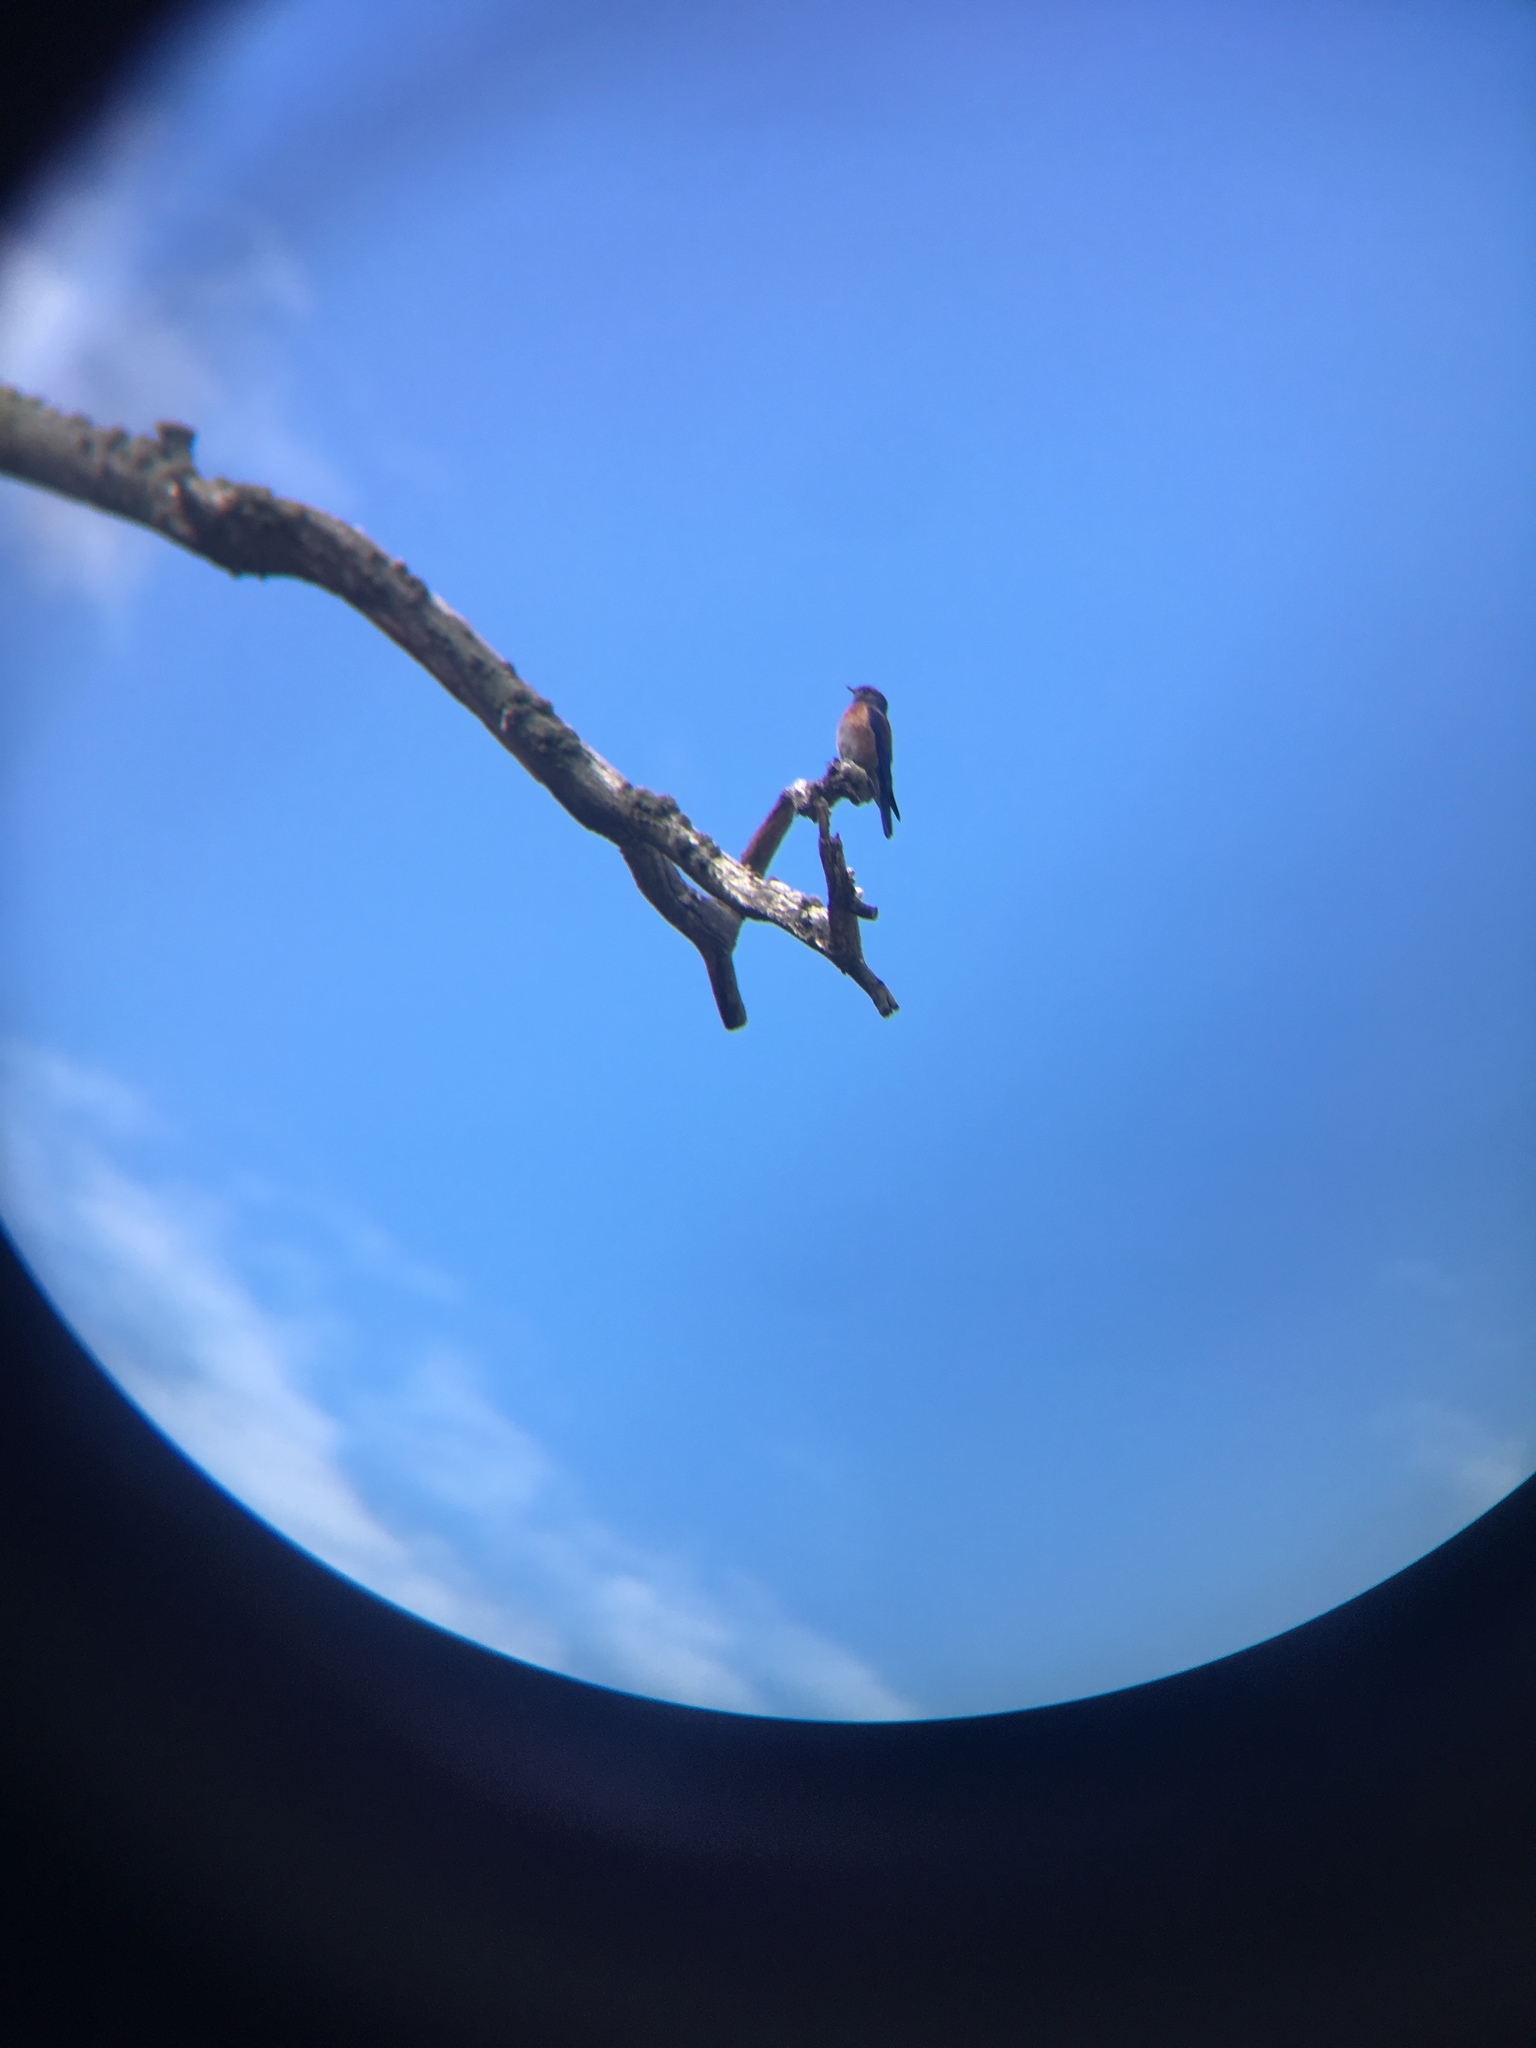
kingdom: Animalia
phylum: Chordata
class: Aves
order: Passeriformes
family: Turdidae
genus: Sialia
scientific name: Sialia mexicana
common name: Western bluebird
